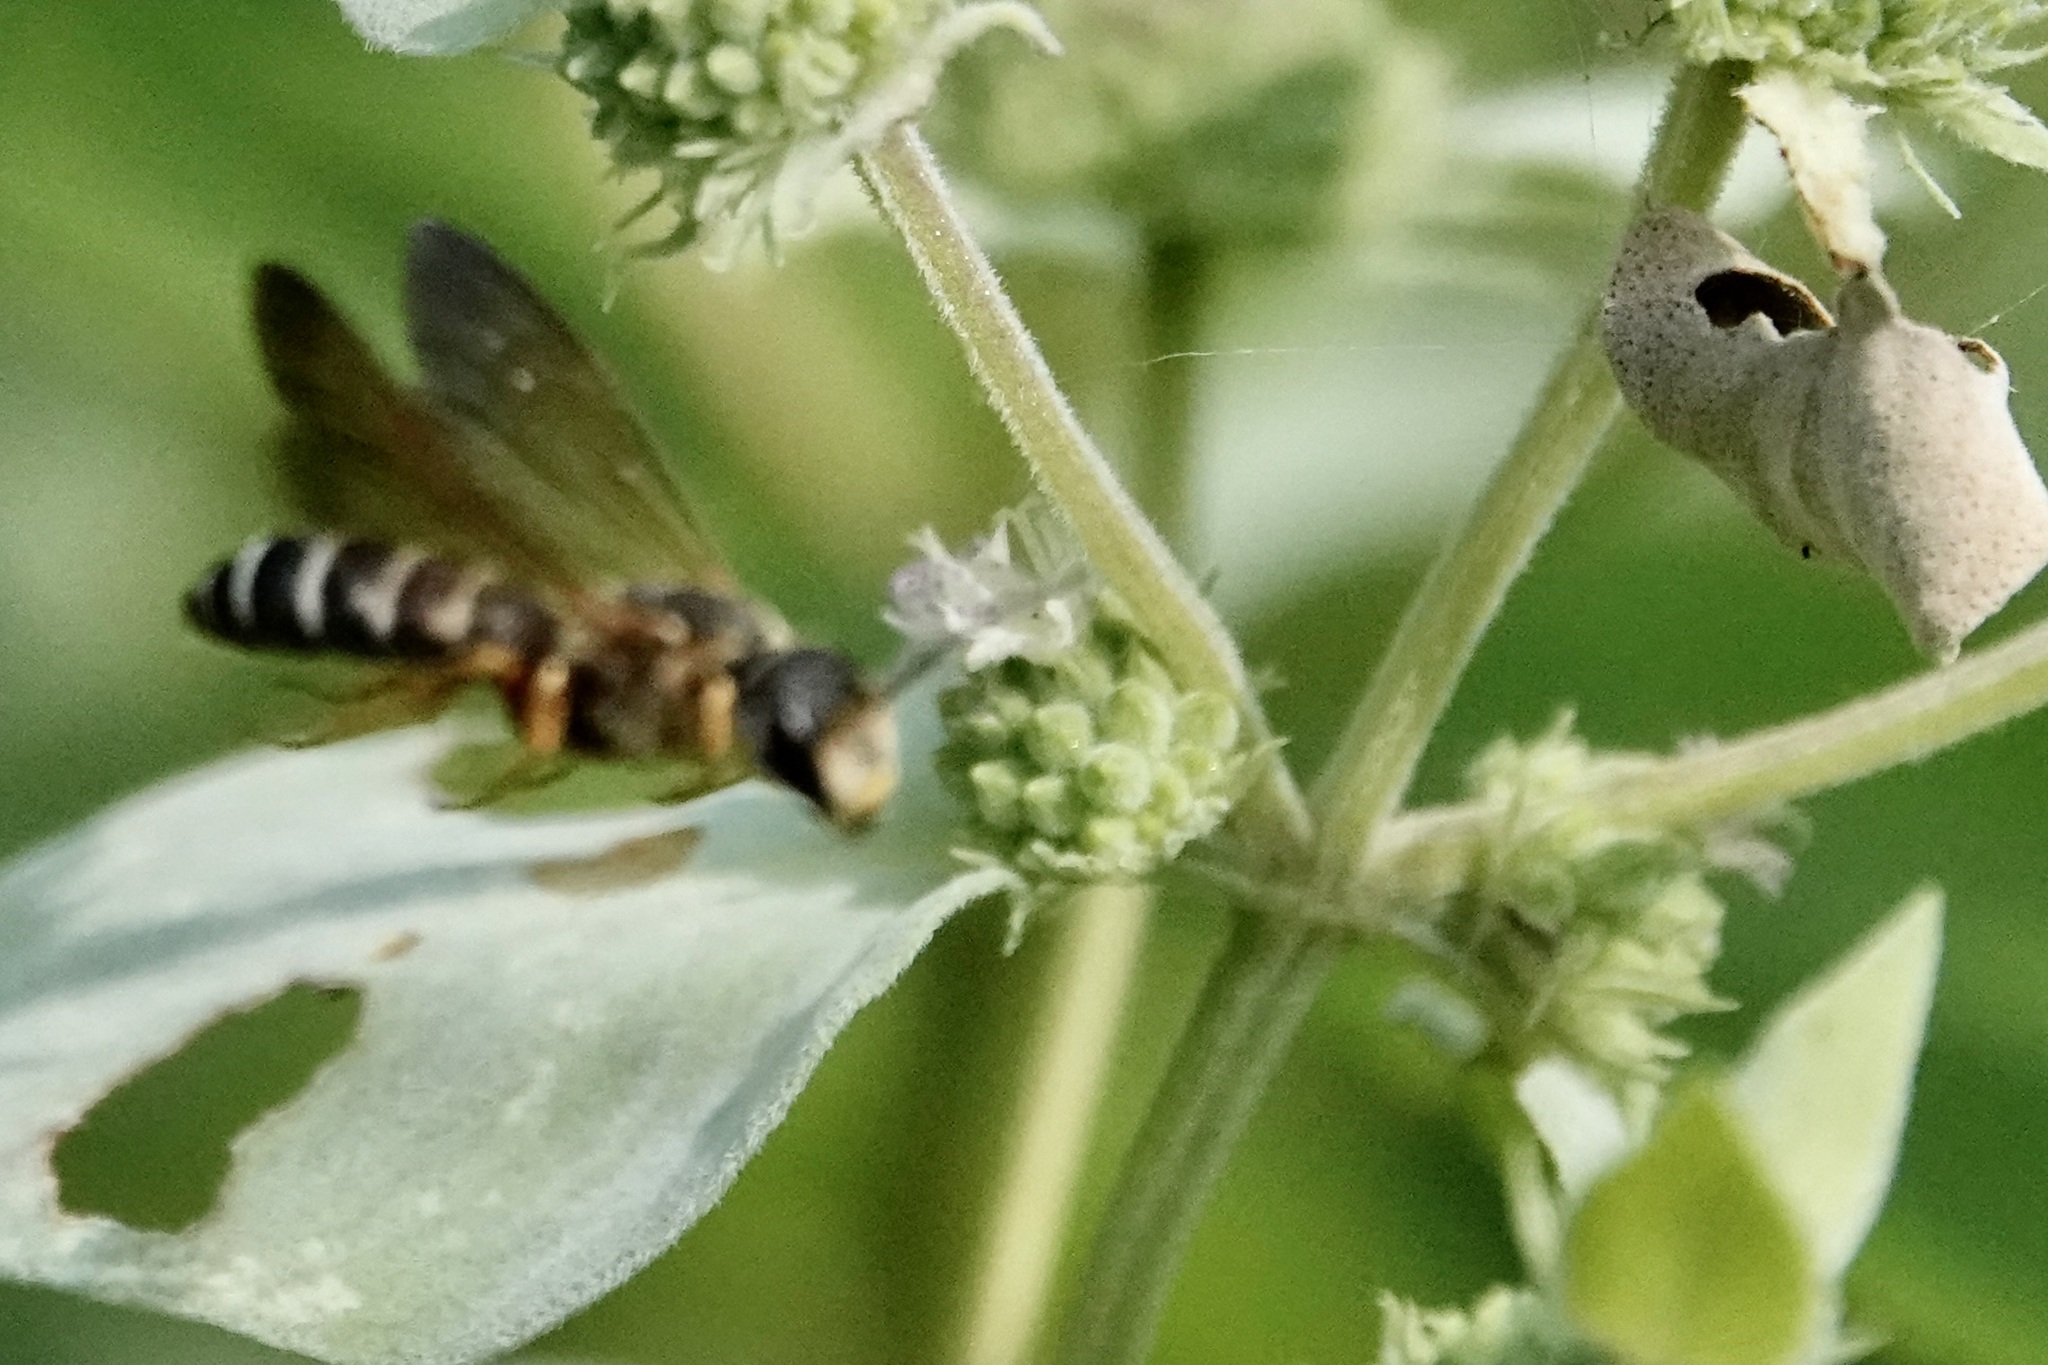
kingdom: Animalia
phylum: Arthropoda
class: Insecta
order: Hymenoptera
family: Halictidae
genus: Halictus
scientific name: Halictus parallelus
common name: Parallel-striped sweat bee
